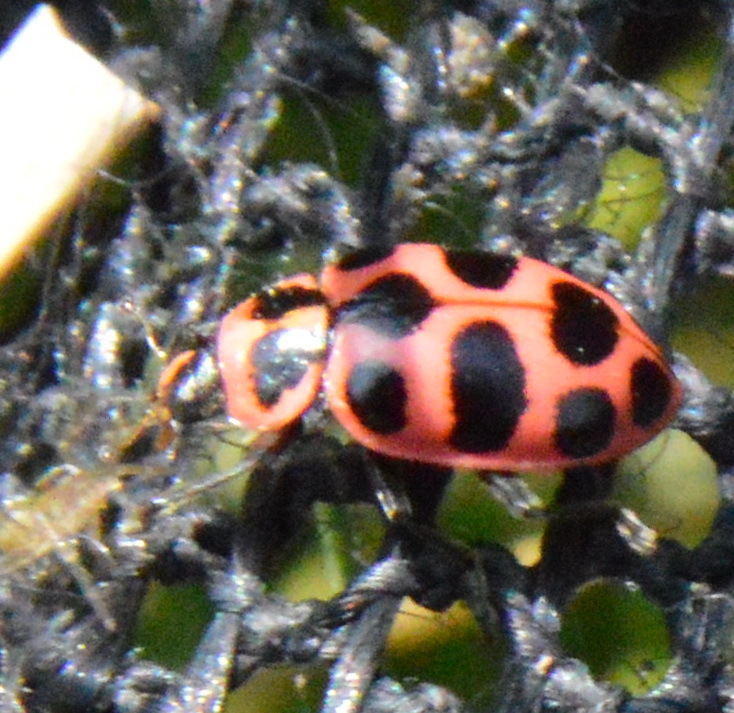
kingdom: Animalia
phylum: Arthropoda
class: Insecta
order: Coleoptera
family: Coccinellidae
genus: Coleomegilla
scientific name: Coleomegilla maculata
